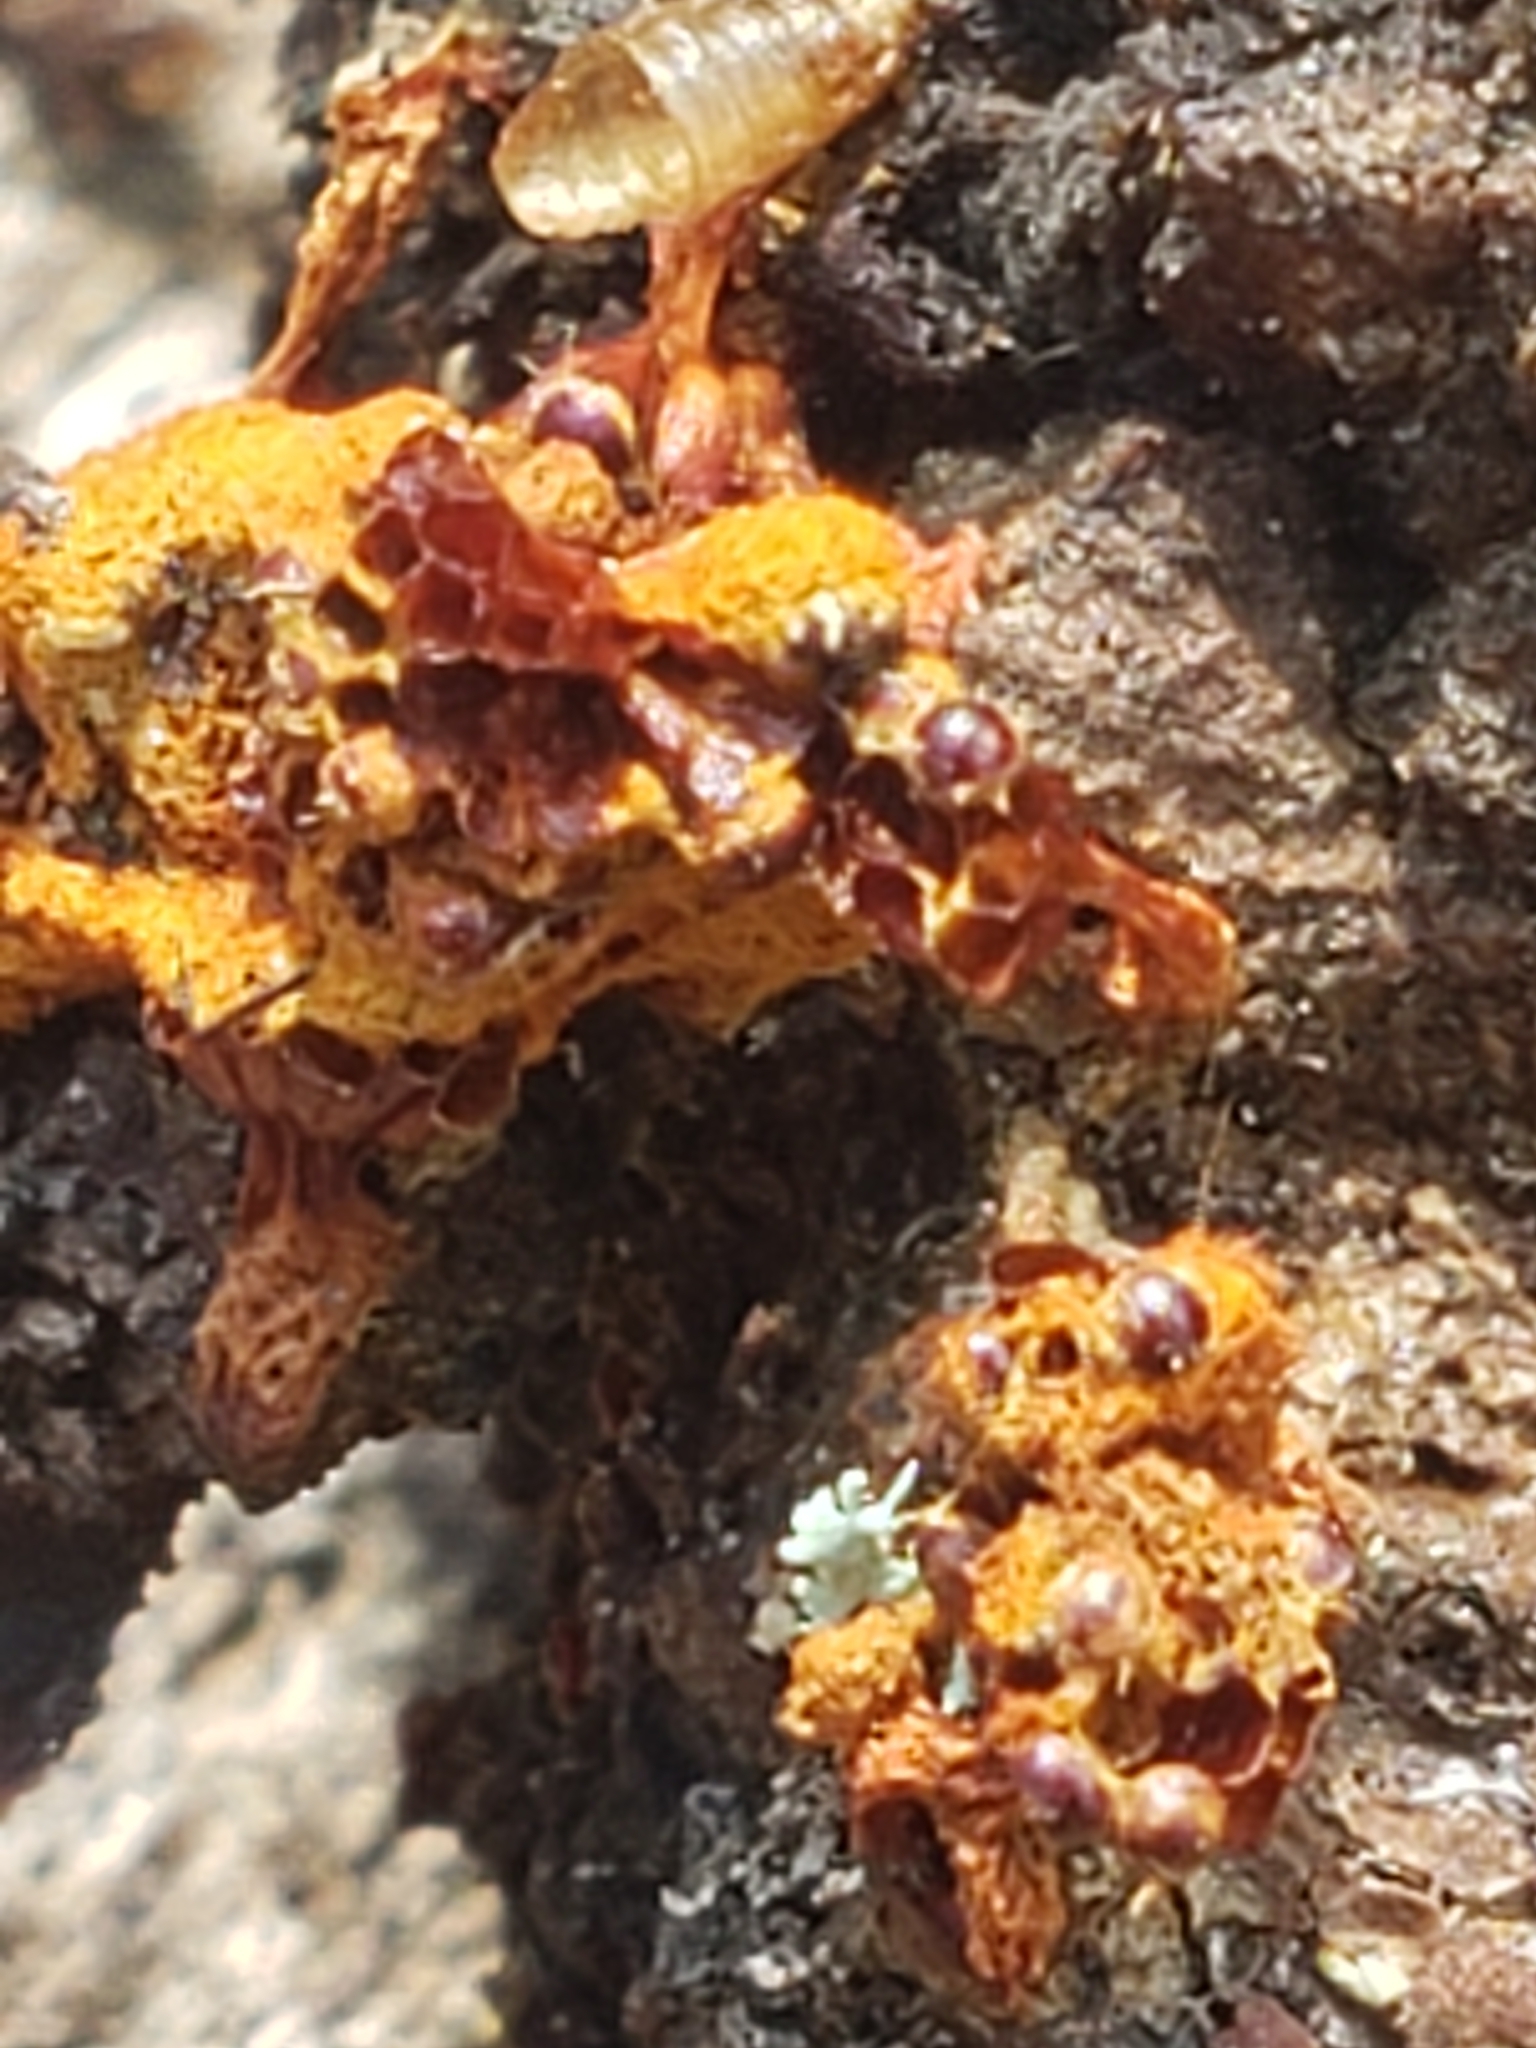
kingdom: Protozoa
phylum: Mycetozoa
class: Myxomycetes
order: Trichiales
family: Trichiaceae
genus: Metatrichia
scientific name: Metatrichia vesparia
